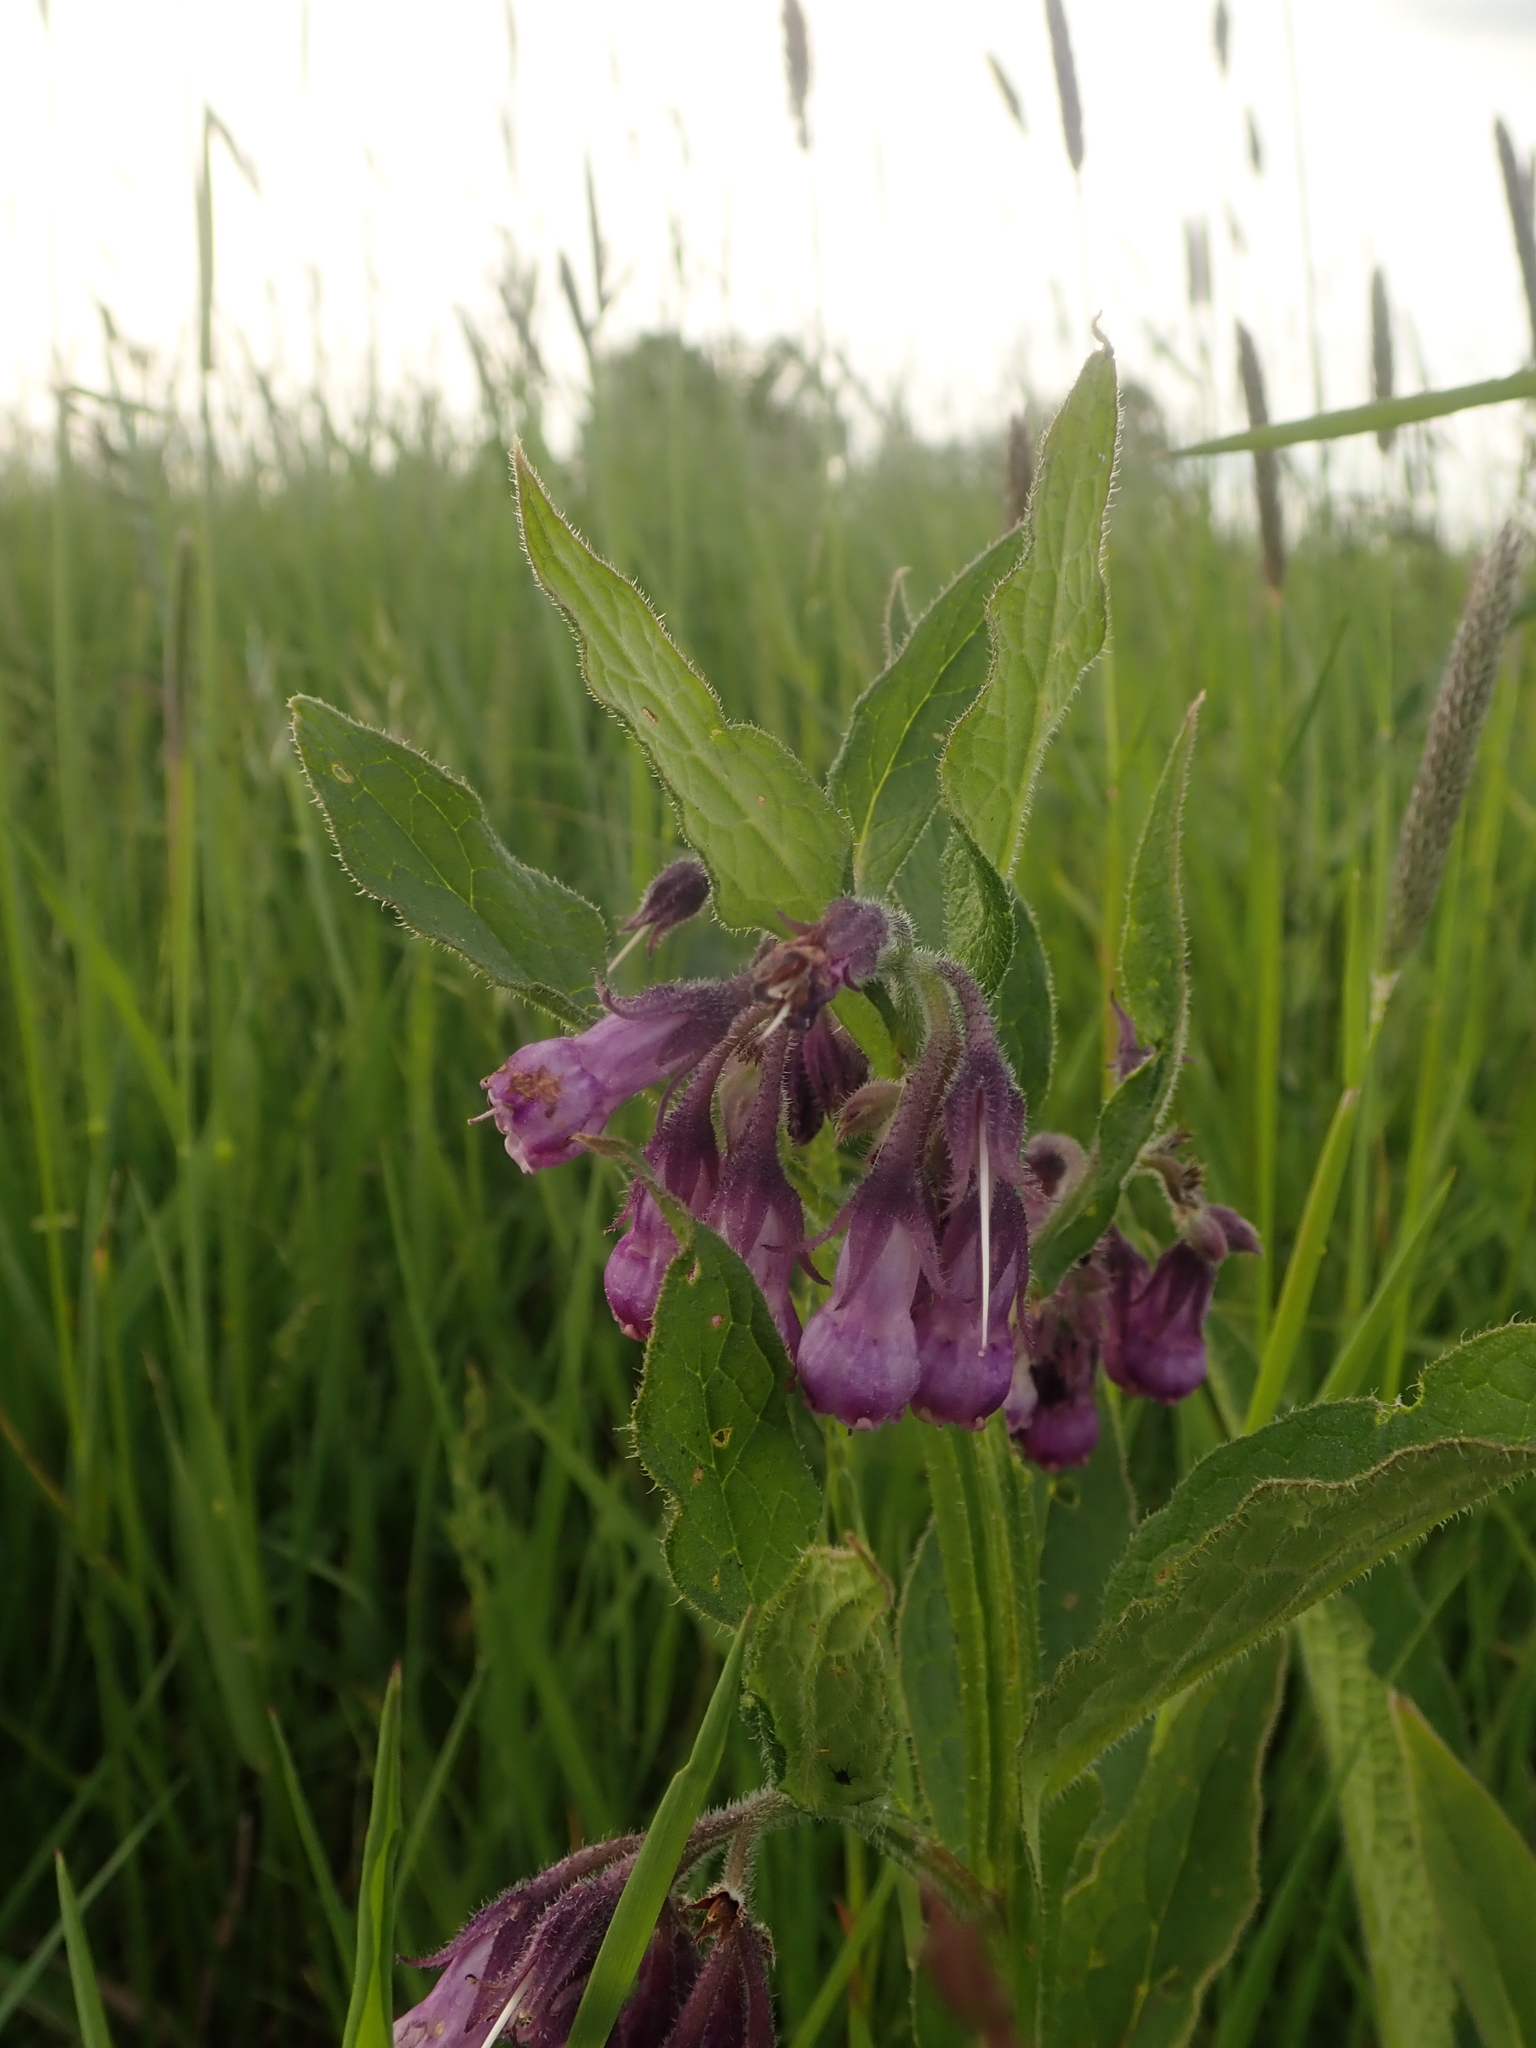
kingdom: Plantae
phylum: Tracheophyta
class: Magnoliopsida
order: Boraginales
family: Boraginaceae
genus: Symphytum
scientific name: Symphytum officinale
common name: Common comfrey
